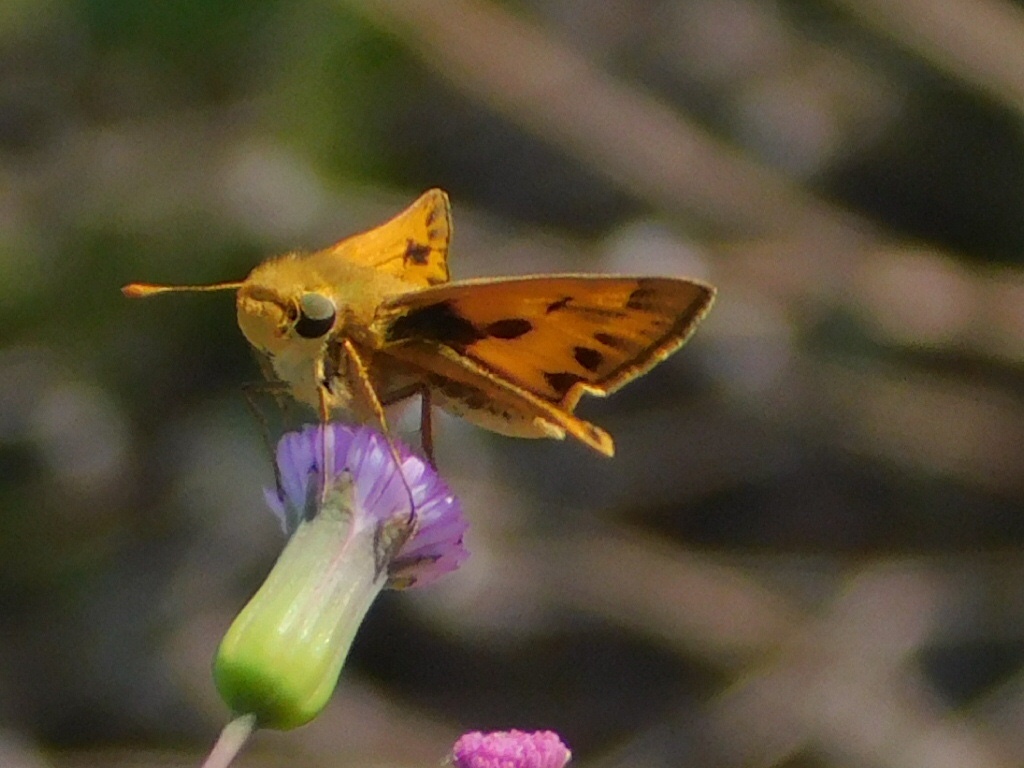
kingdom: Animalia
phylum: Arthropoda
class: Insecta
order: Lepidoptera
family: Hesperiidae
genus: Hylephila
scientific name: Hylephila phyleus
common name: Fiery skipper
